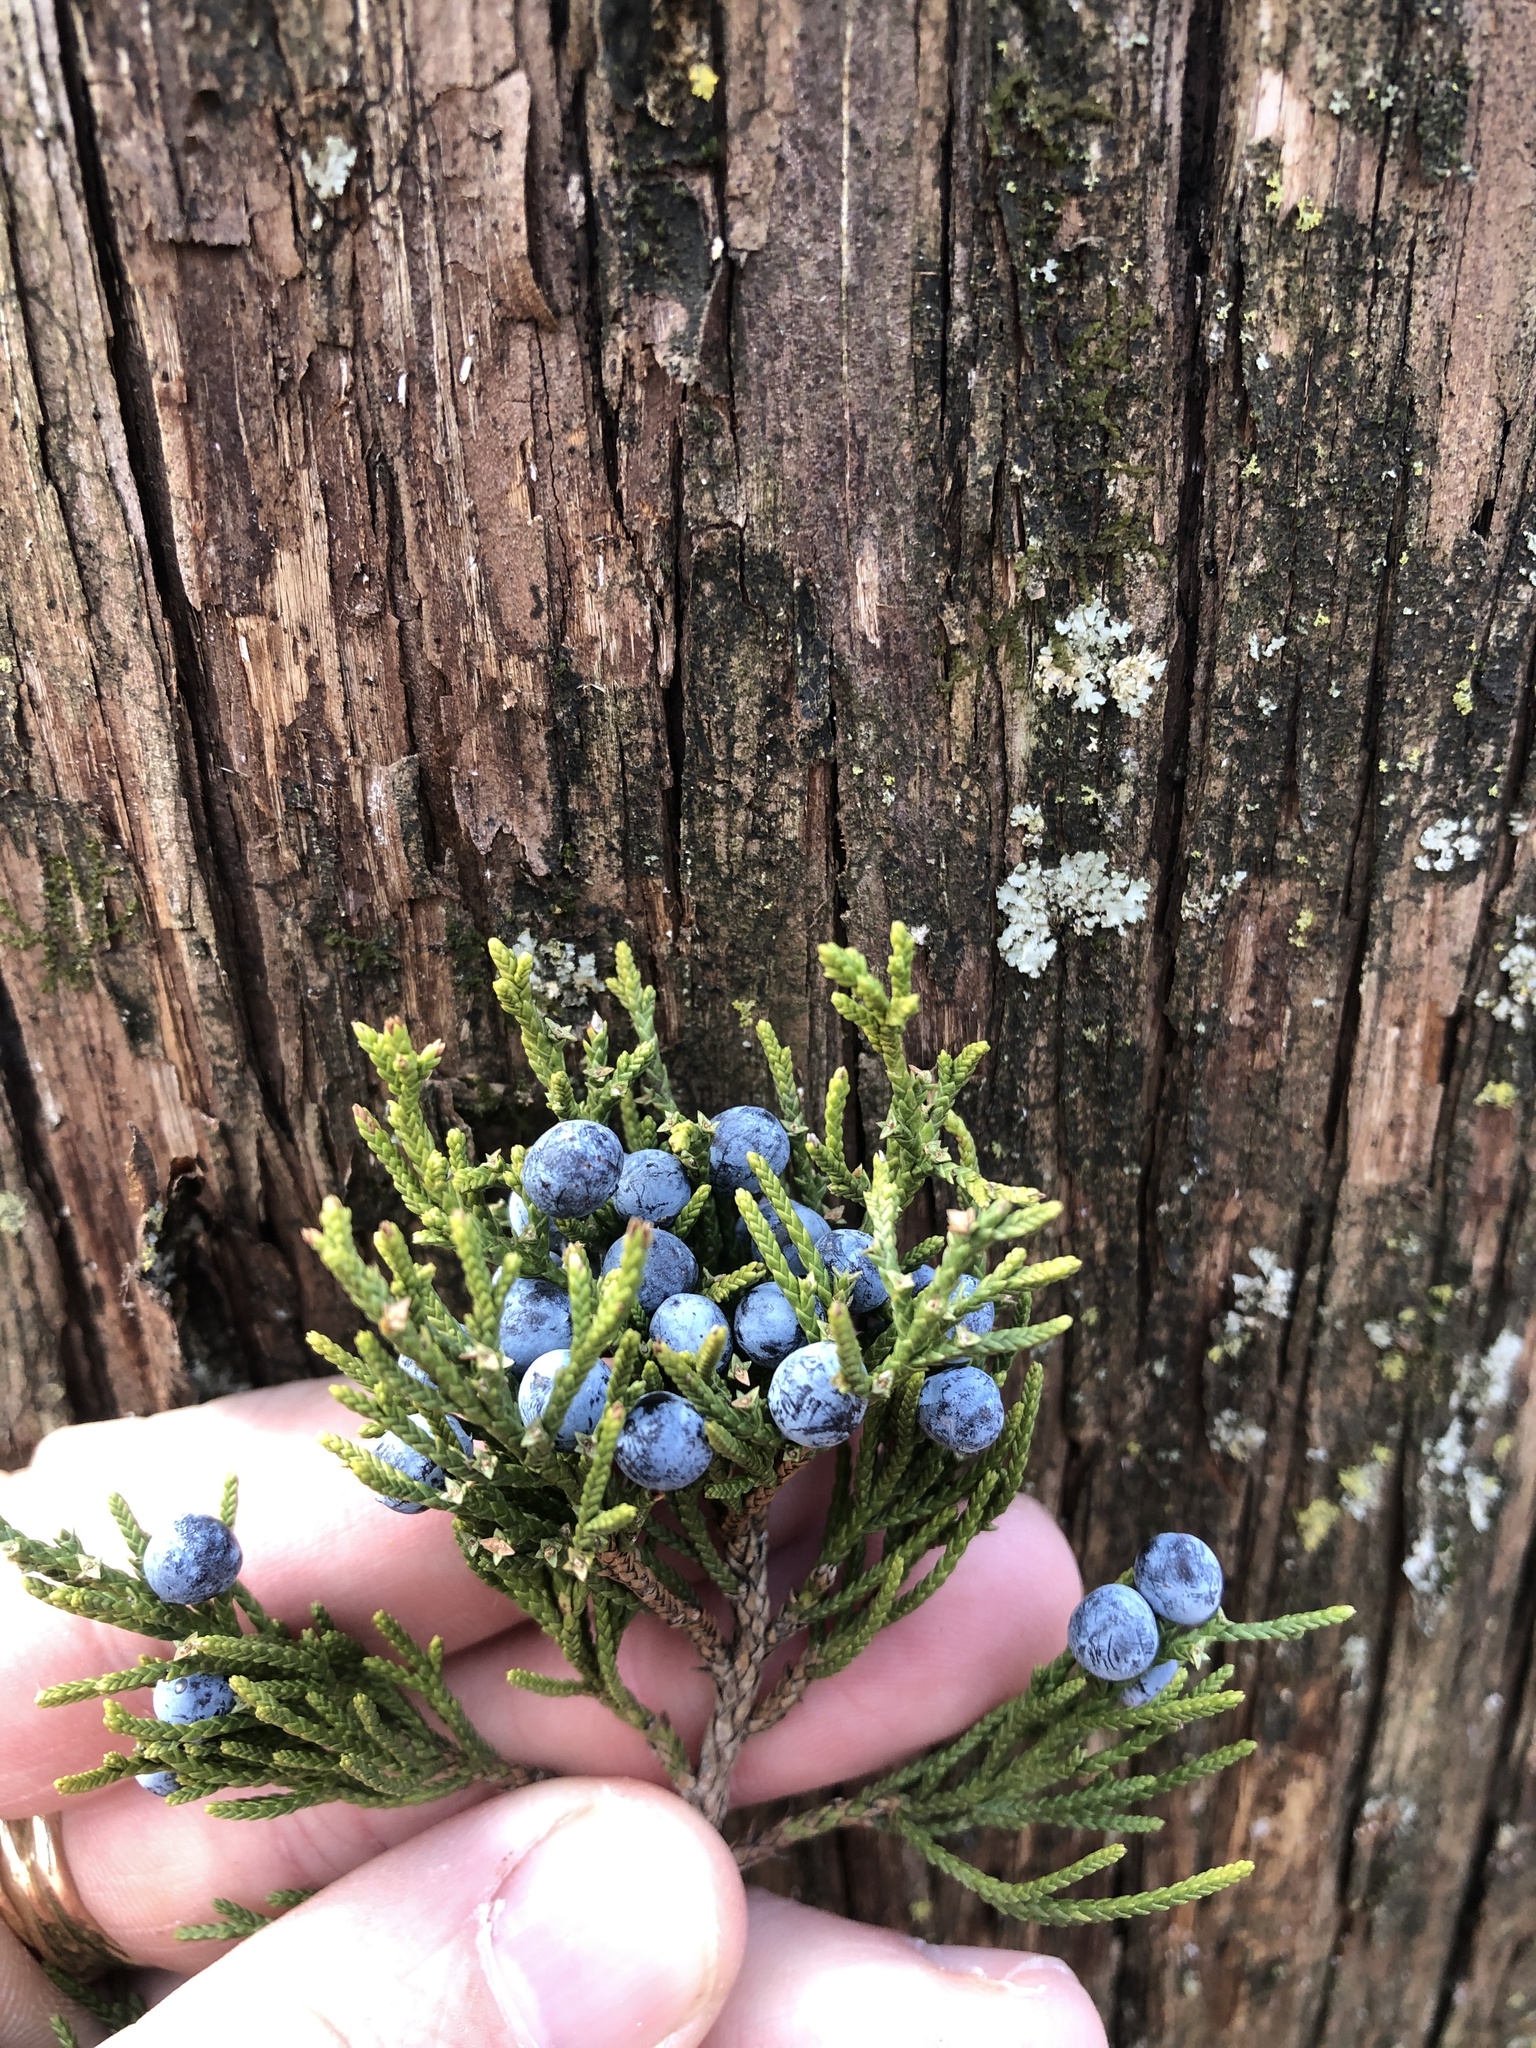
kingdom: Plantae
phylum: Tracheophyta
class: Pinopsida
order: Pinales
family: Cupressaceae
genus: Juniperus
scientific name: Juniperus virginiana
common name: Red juniper
